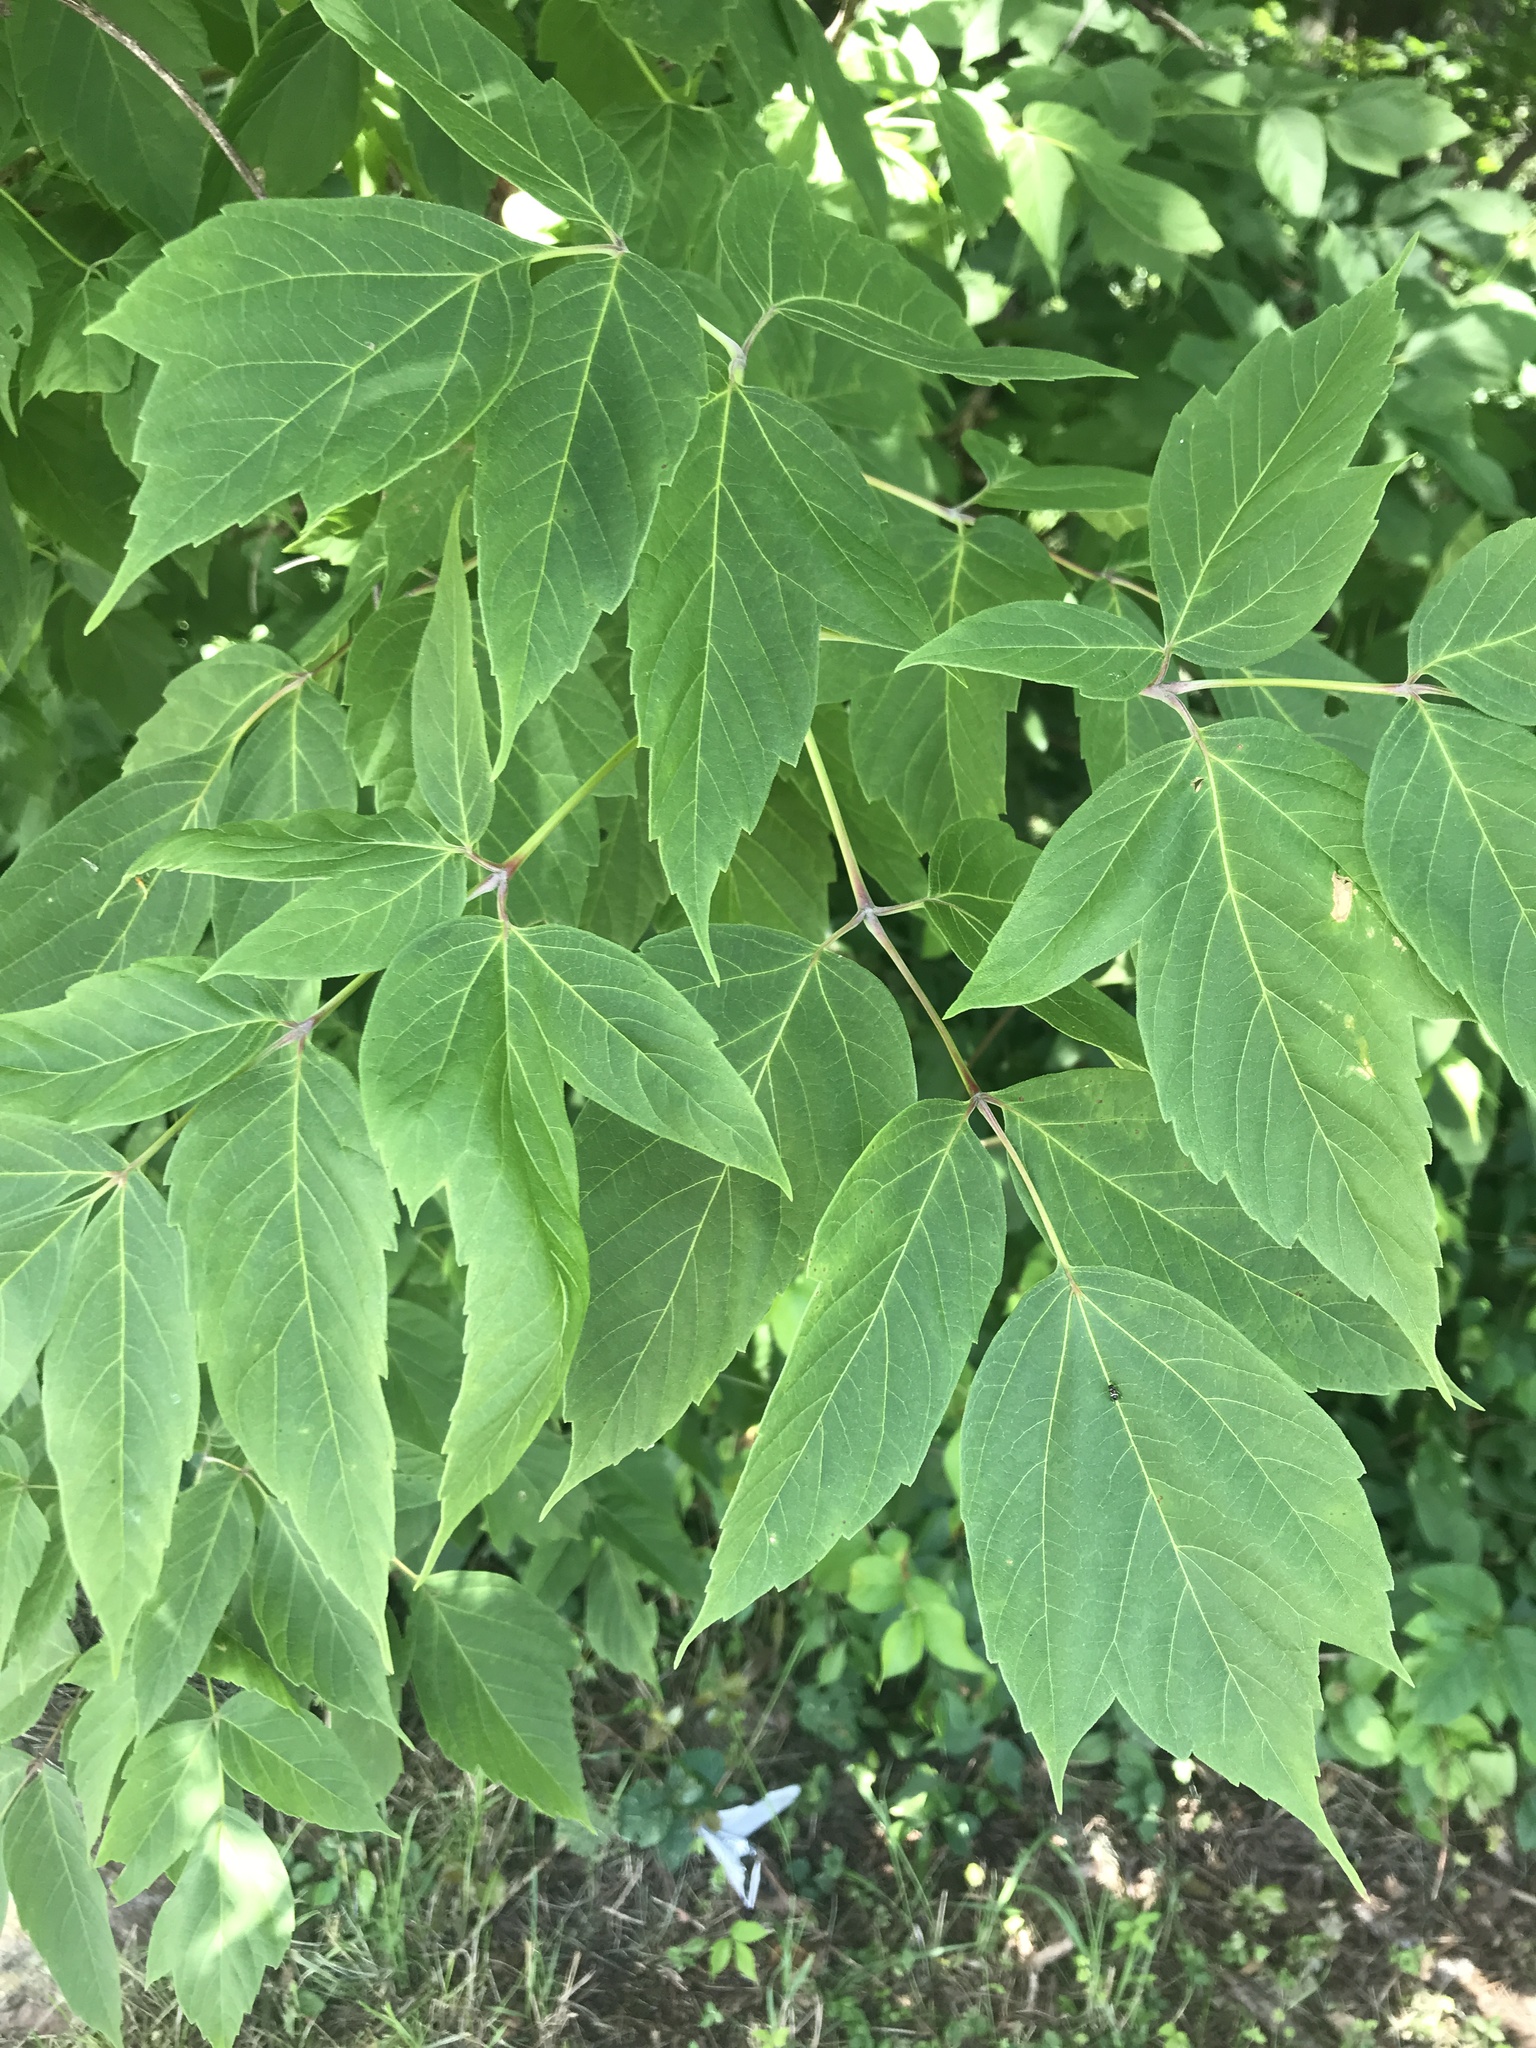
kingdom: Plantae
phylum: Tracheophyta
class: Magnoliopsida
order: Sapindales
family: Sapindaceae
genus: Acer
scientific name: Acer negundo
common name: Ashleaf maple
